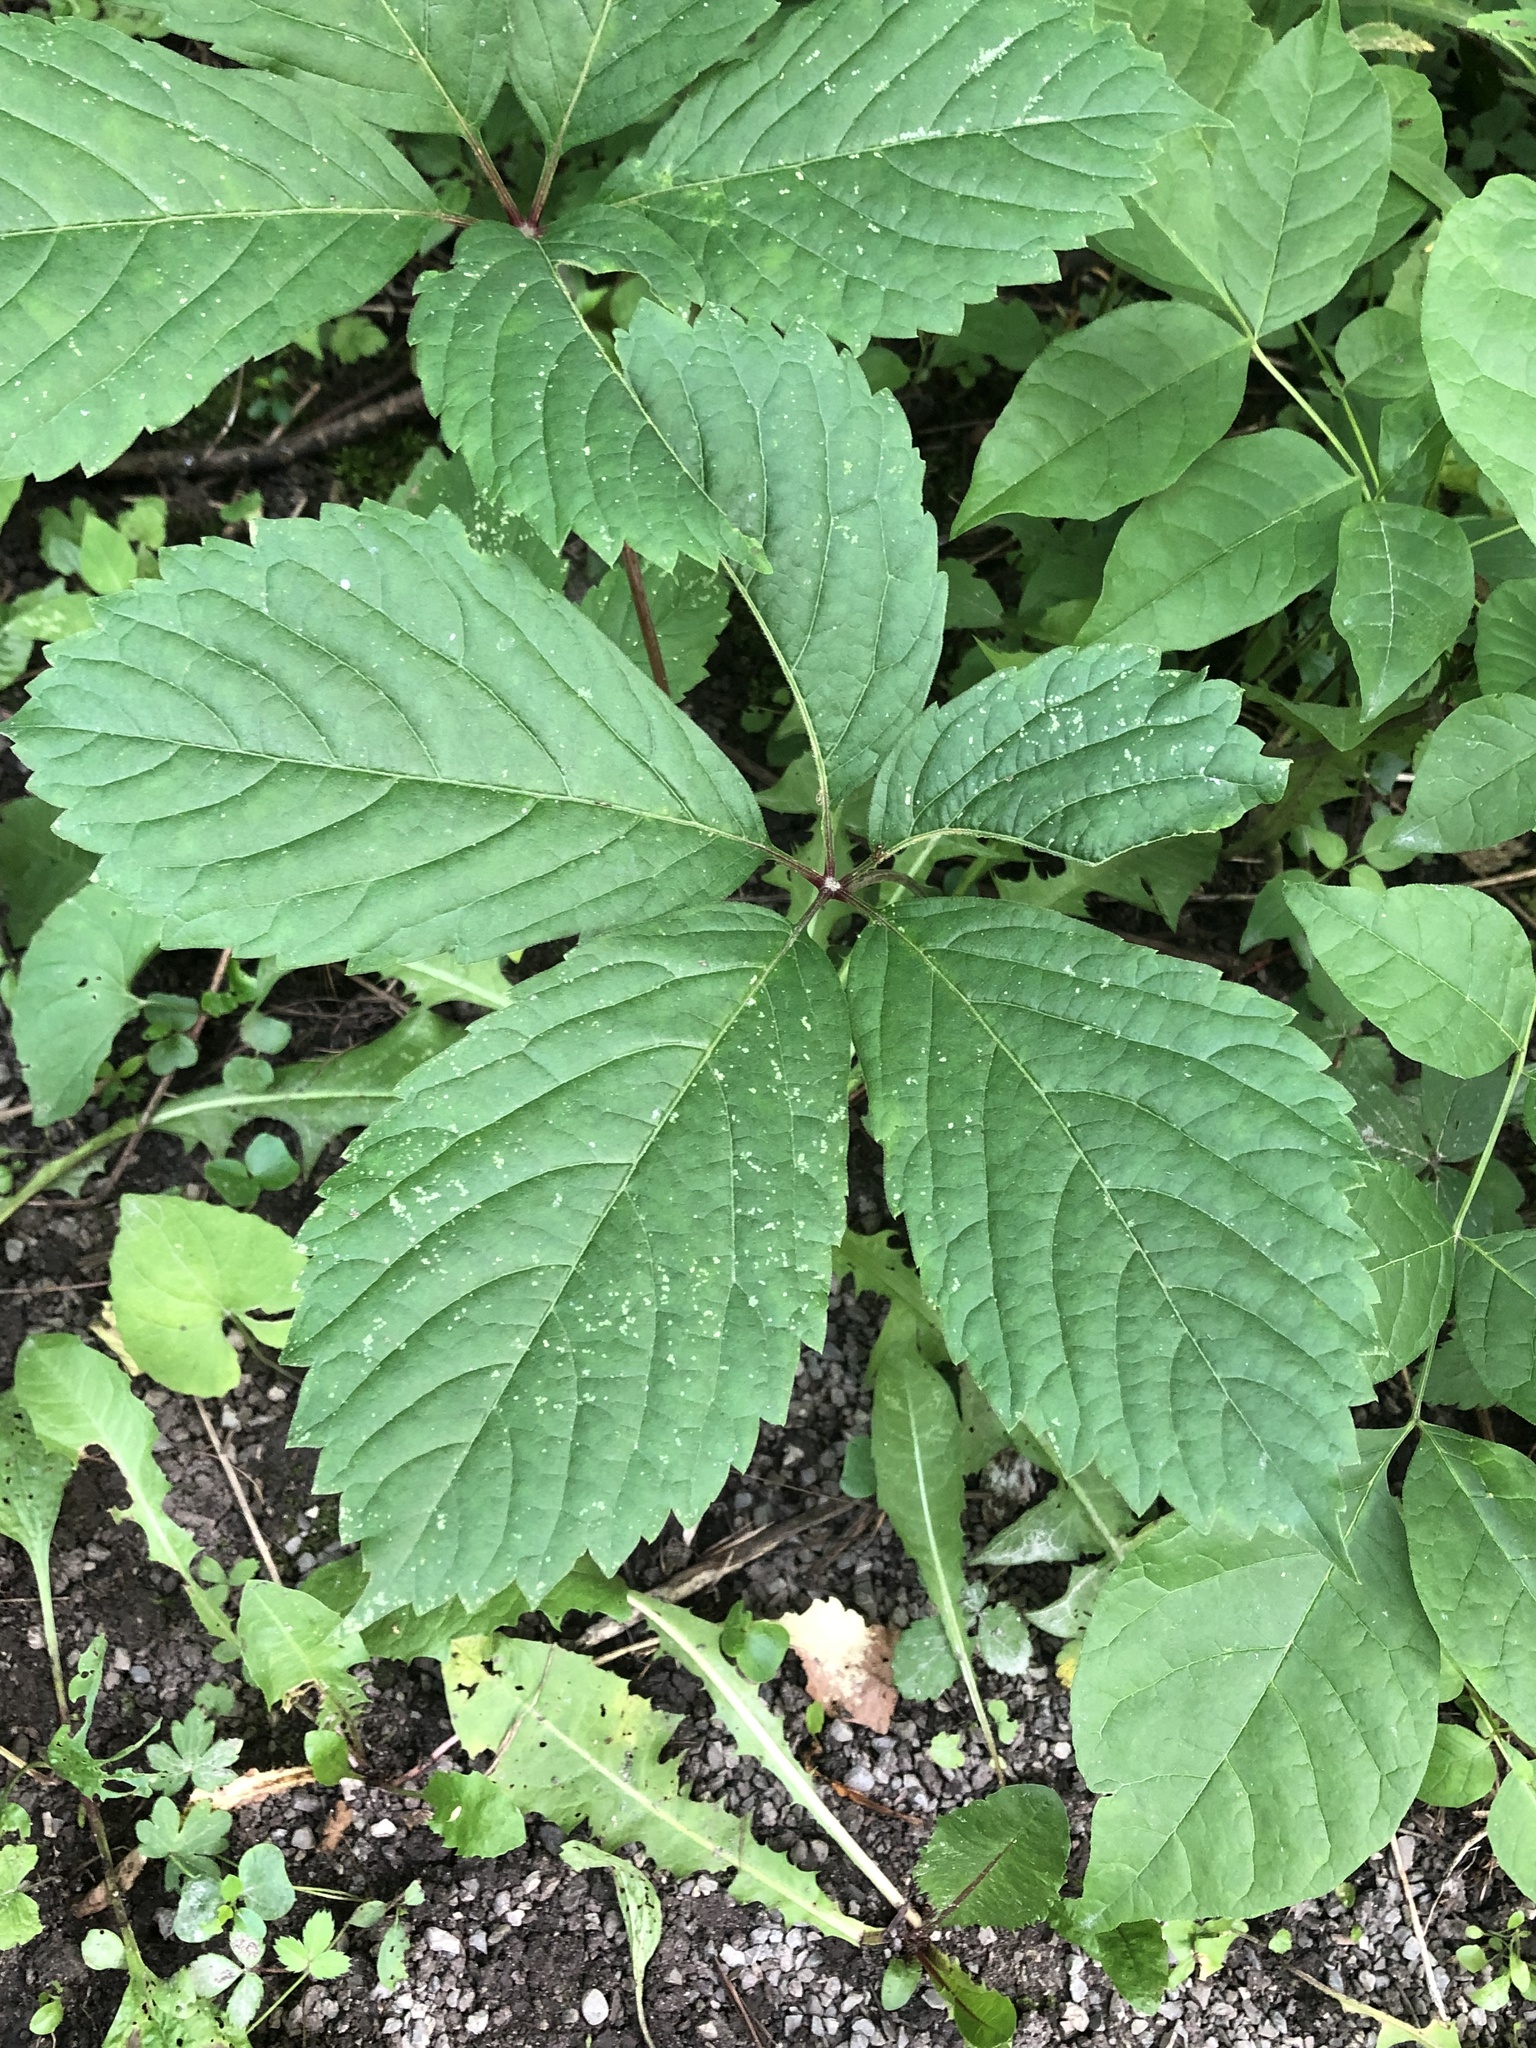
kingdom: Plantae
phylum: Tracheophyta
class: Magnoliopsida
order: Vitales
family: Vitaceae
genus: Parthenocissus
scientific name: Parthenocissus inserta
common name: False virginia-creeper
